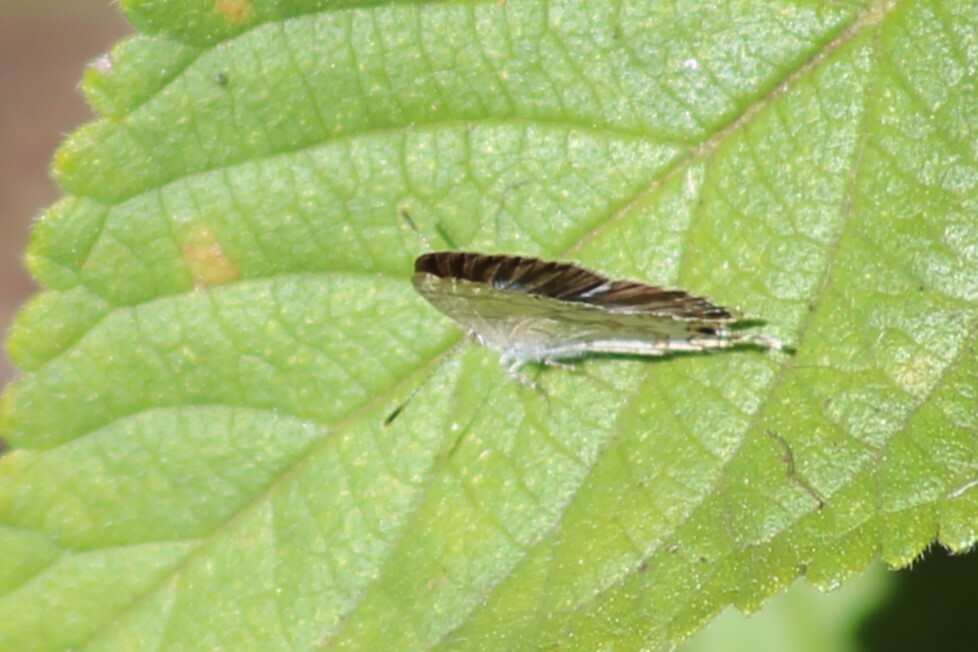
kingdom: Animalia
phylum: Arthropoda
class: Insecta
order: Lepidoptera
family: Lycaenidae
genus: Catopyrops
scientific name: Catopyrops florinda
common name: Speckled line-blue
